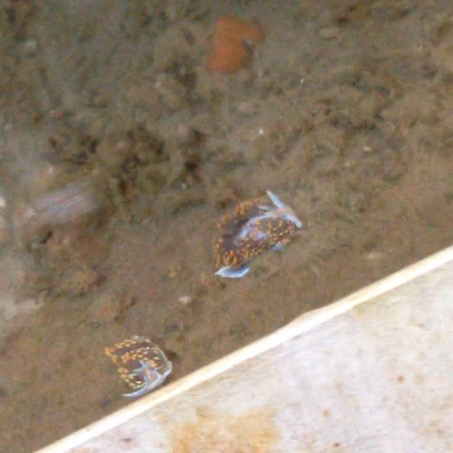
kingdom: Animalia
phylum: Mollusca
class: Gastropoda
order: Nudibranchia
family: Myrrhinidae
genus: Hermissenda
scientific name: Hermissenda opalescens
